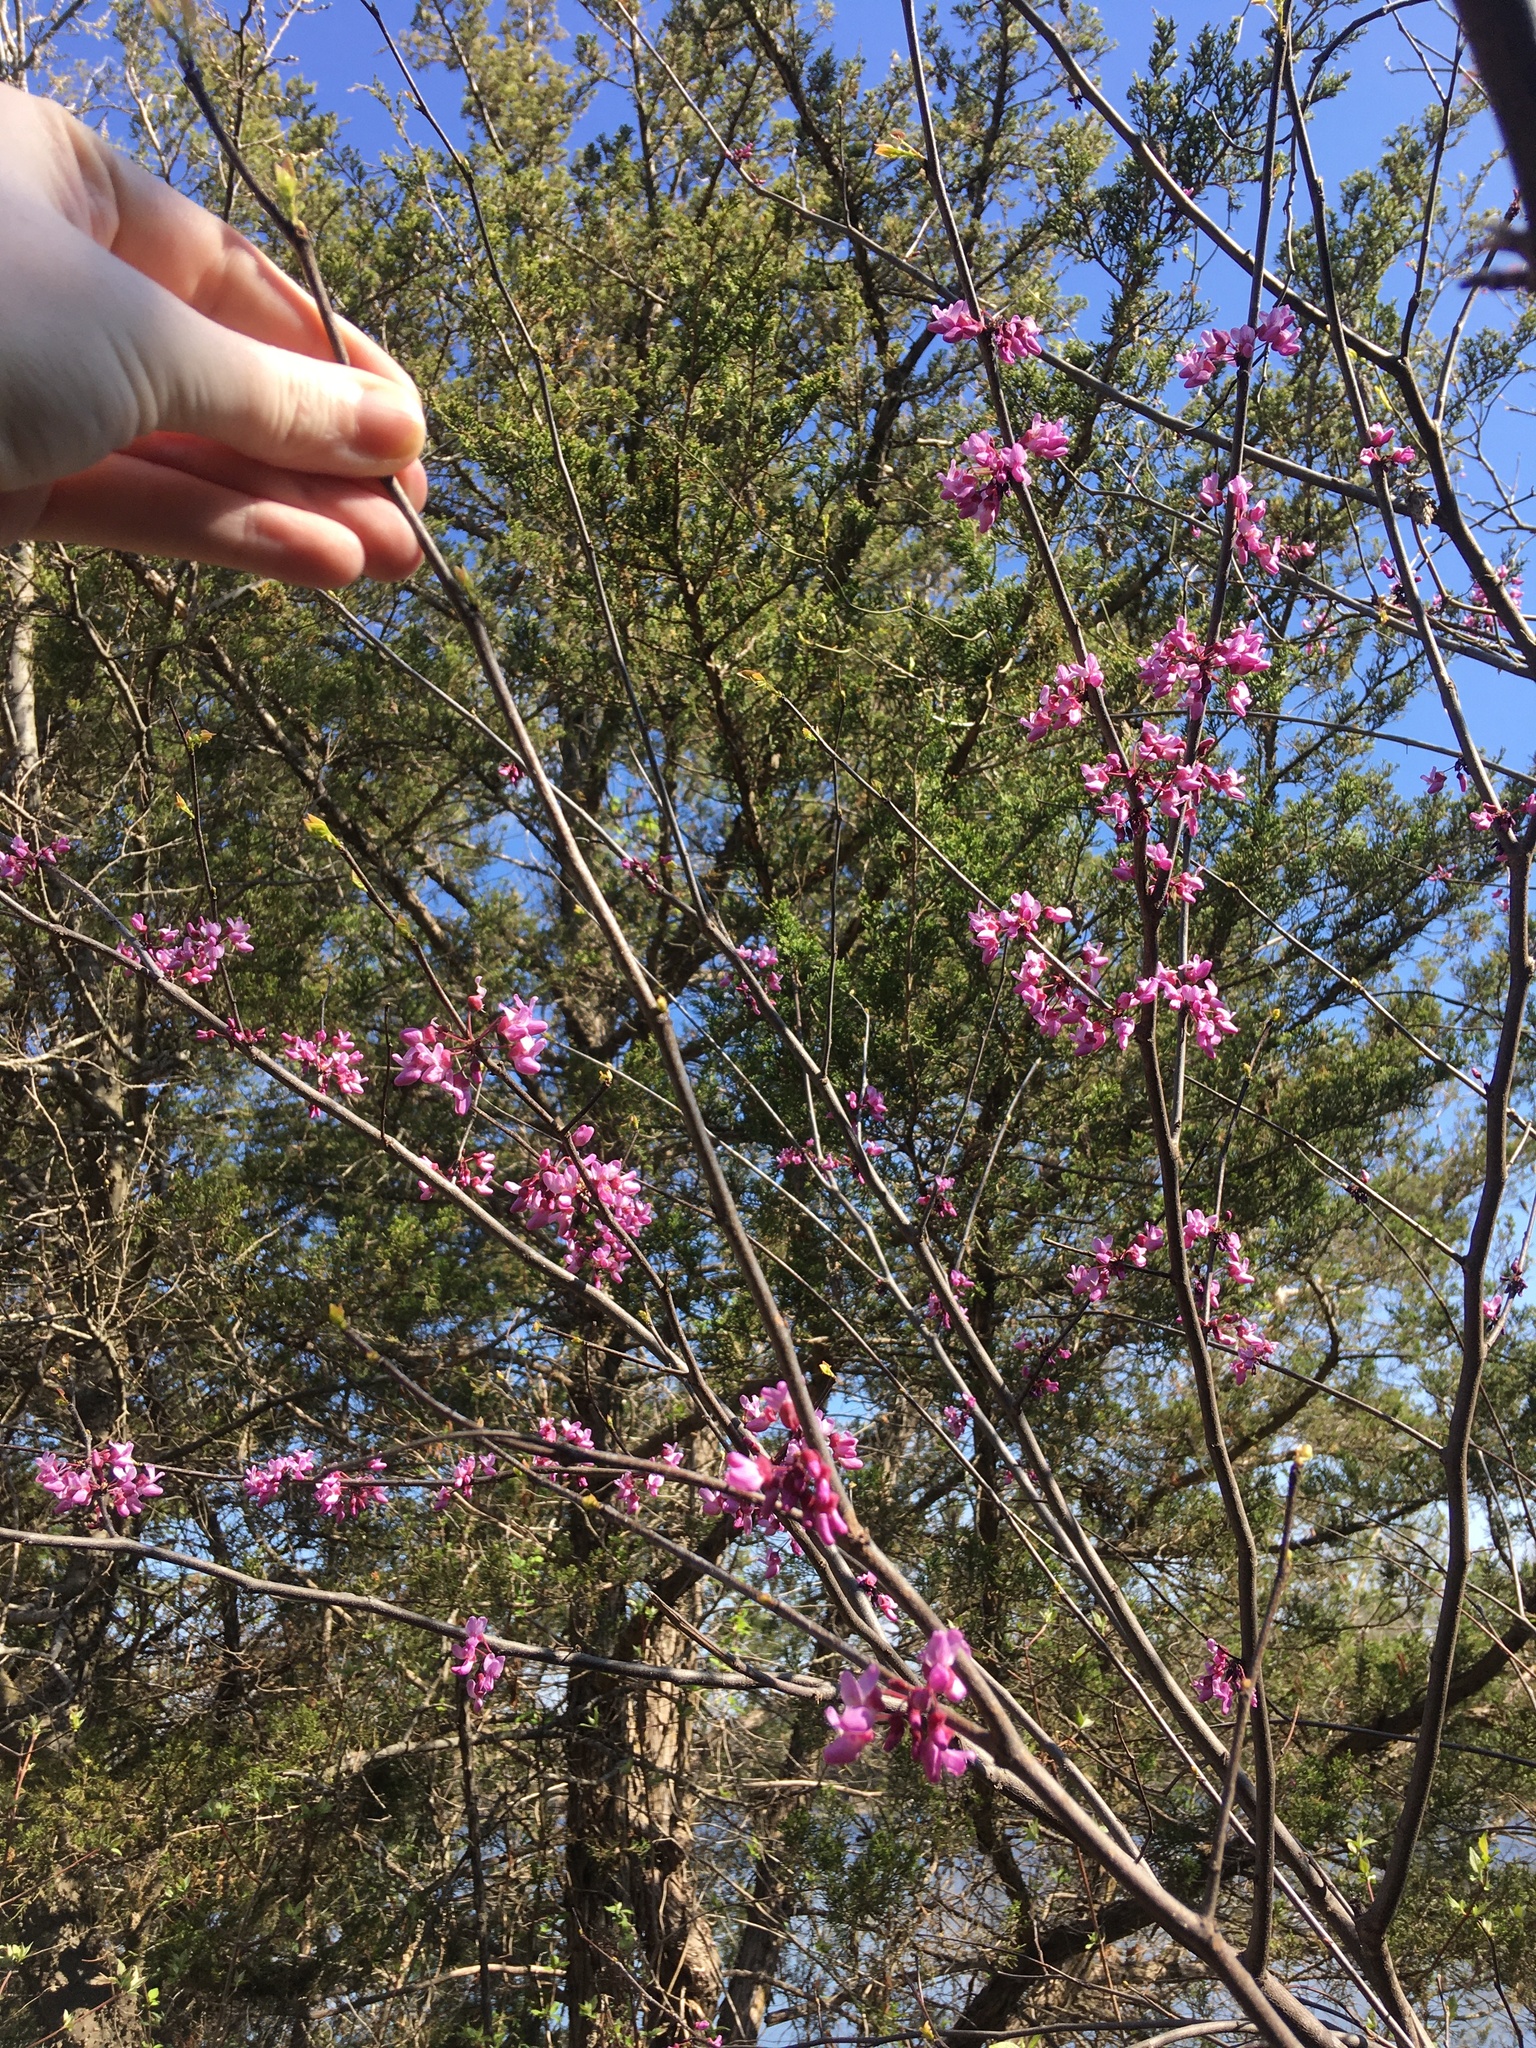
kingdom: Plantae
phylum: Tracheophyta
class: Magnoliopsida
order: Fabales
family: Fabaceae
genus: Cercis
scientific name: Cercis canadensis
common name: Eastern redbud
